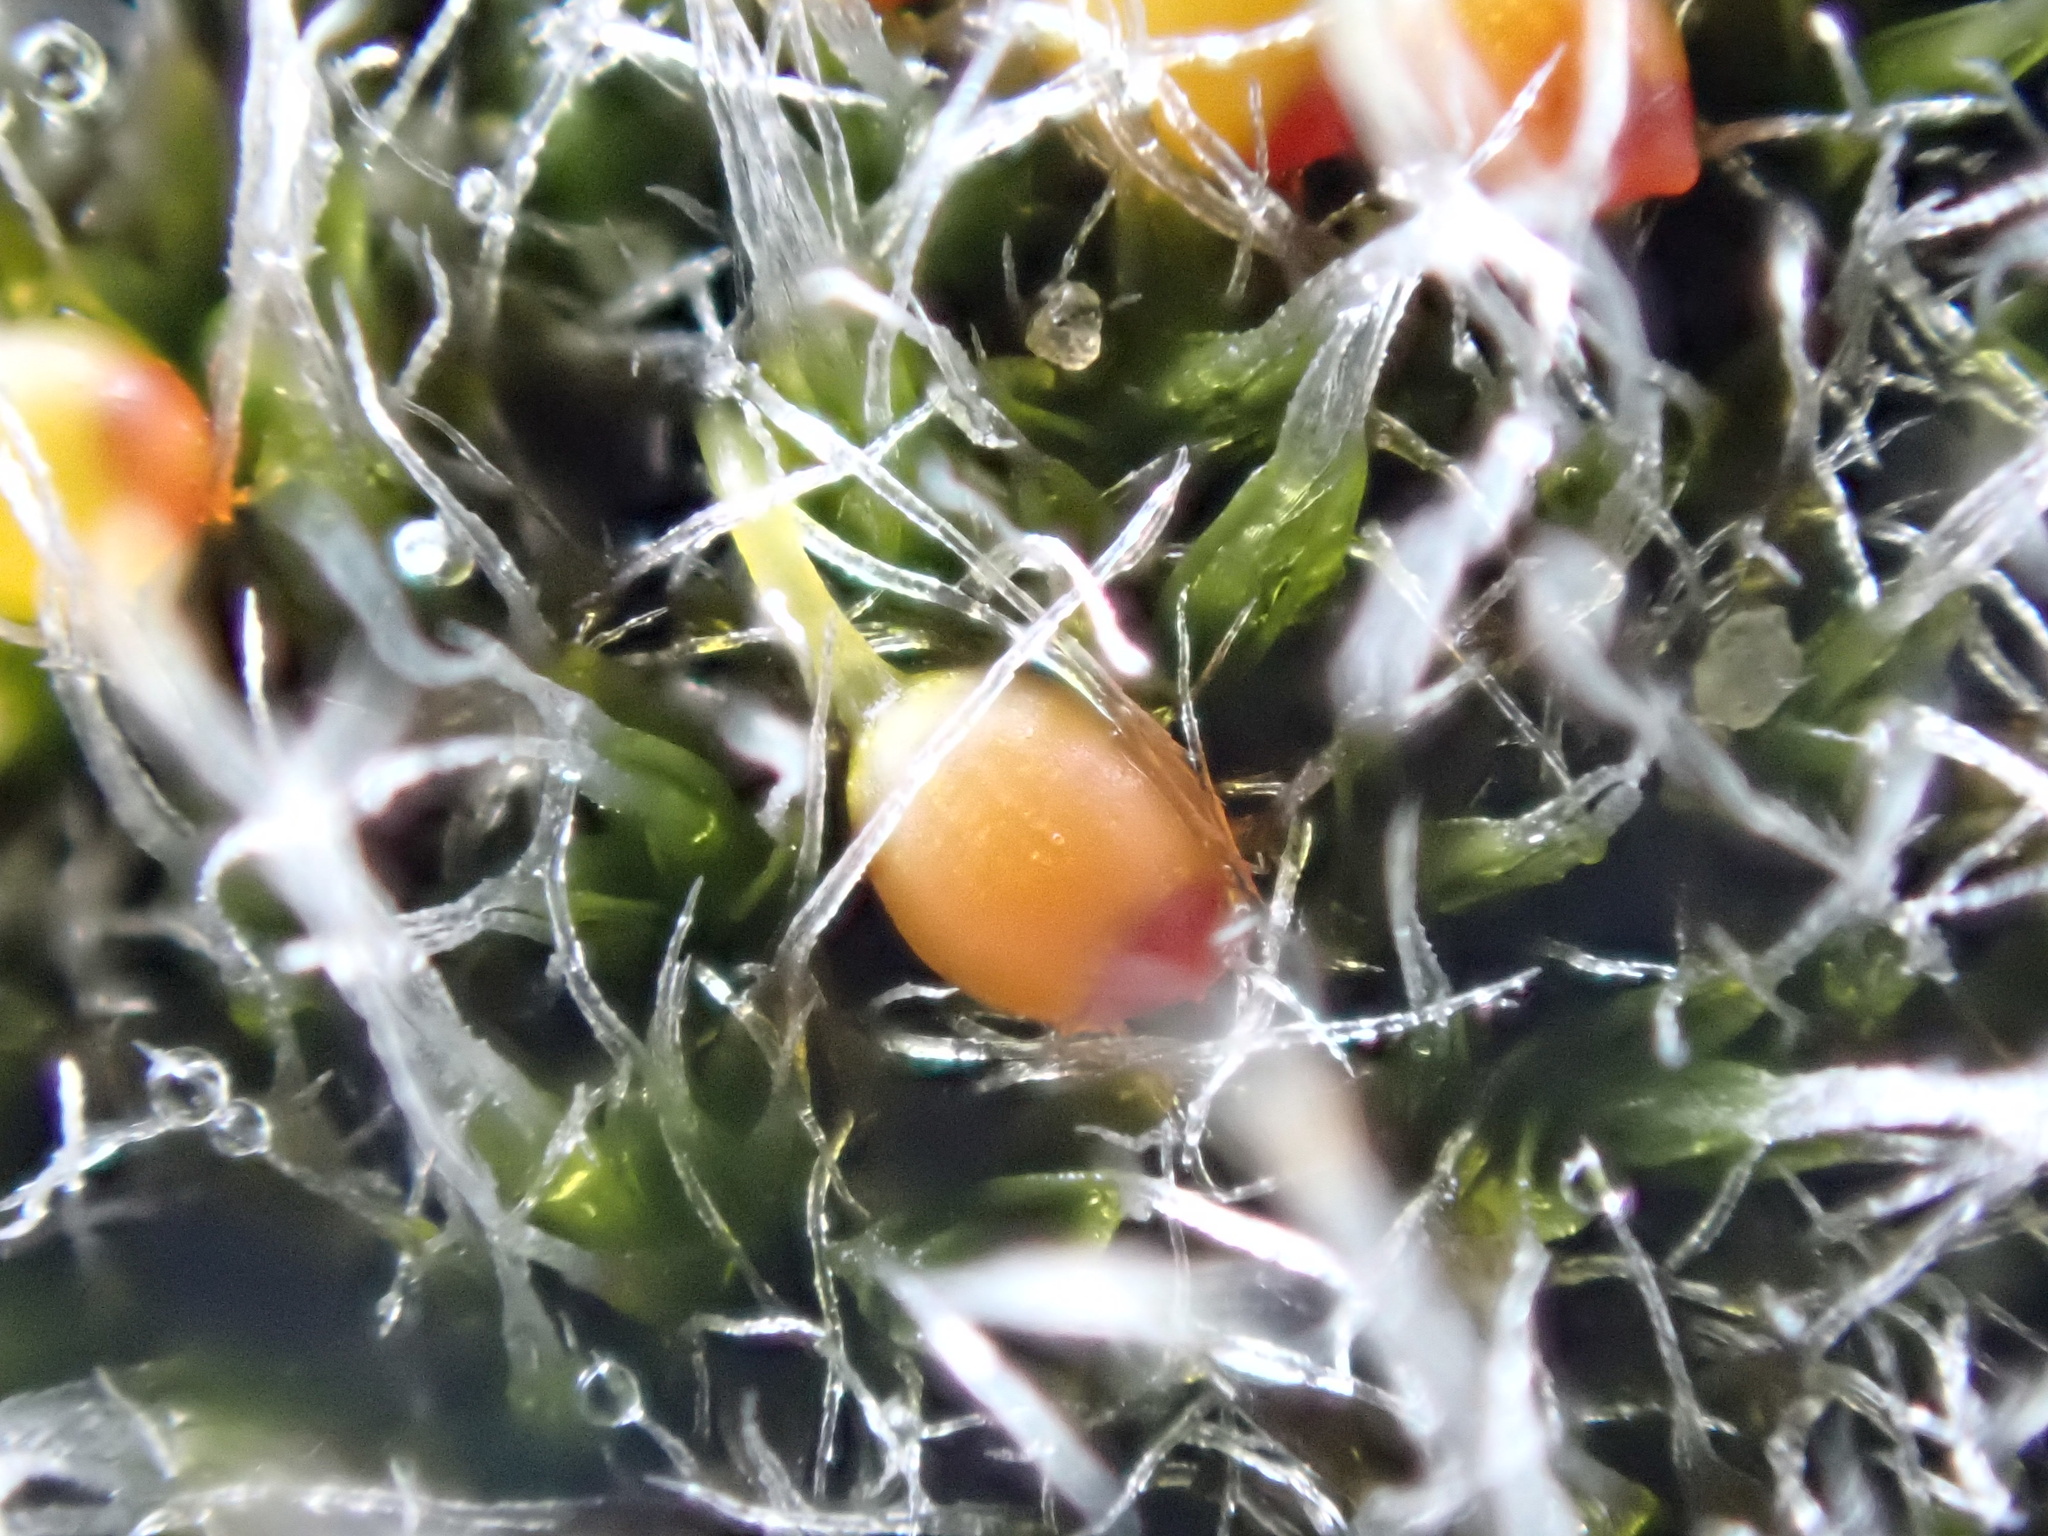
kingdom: Plantae
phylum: Bryophyta
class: Bryopsida
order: Grimmiales
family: Grimmiaceae
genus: Grimmia
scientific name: Grimmia orbicularis
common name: Round-fruited grimmia
